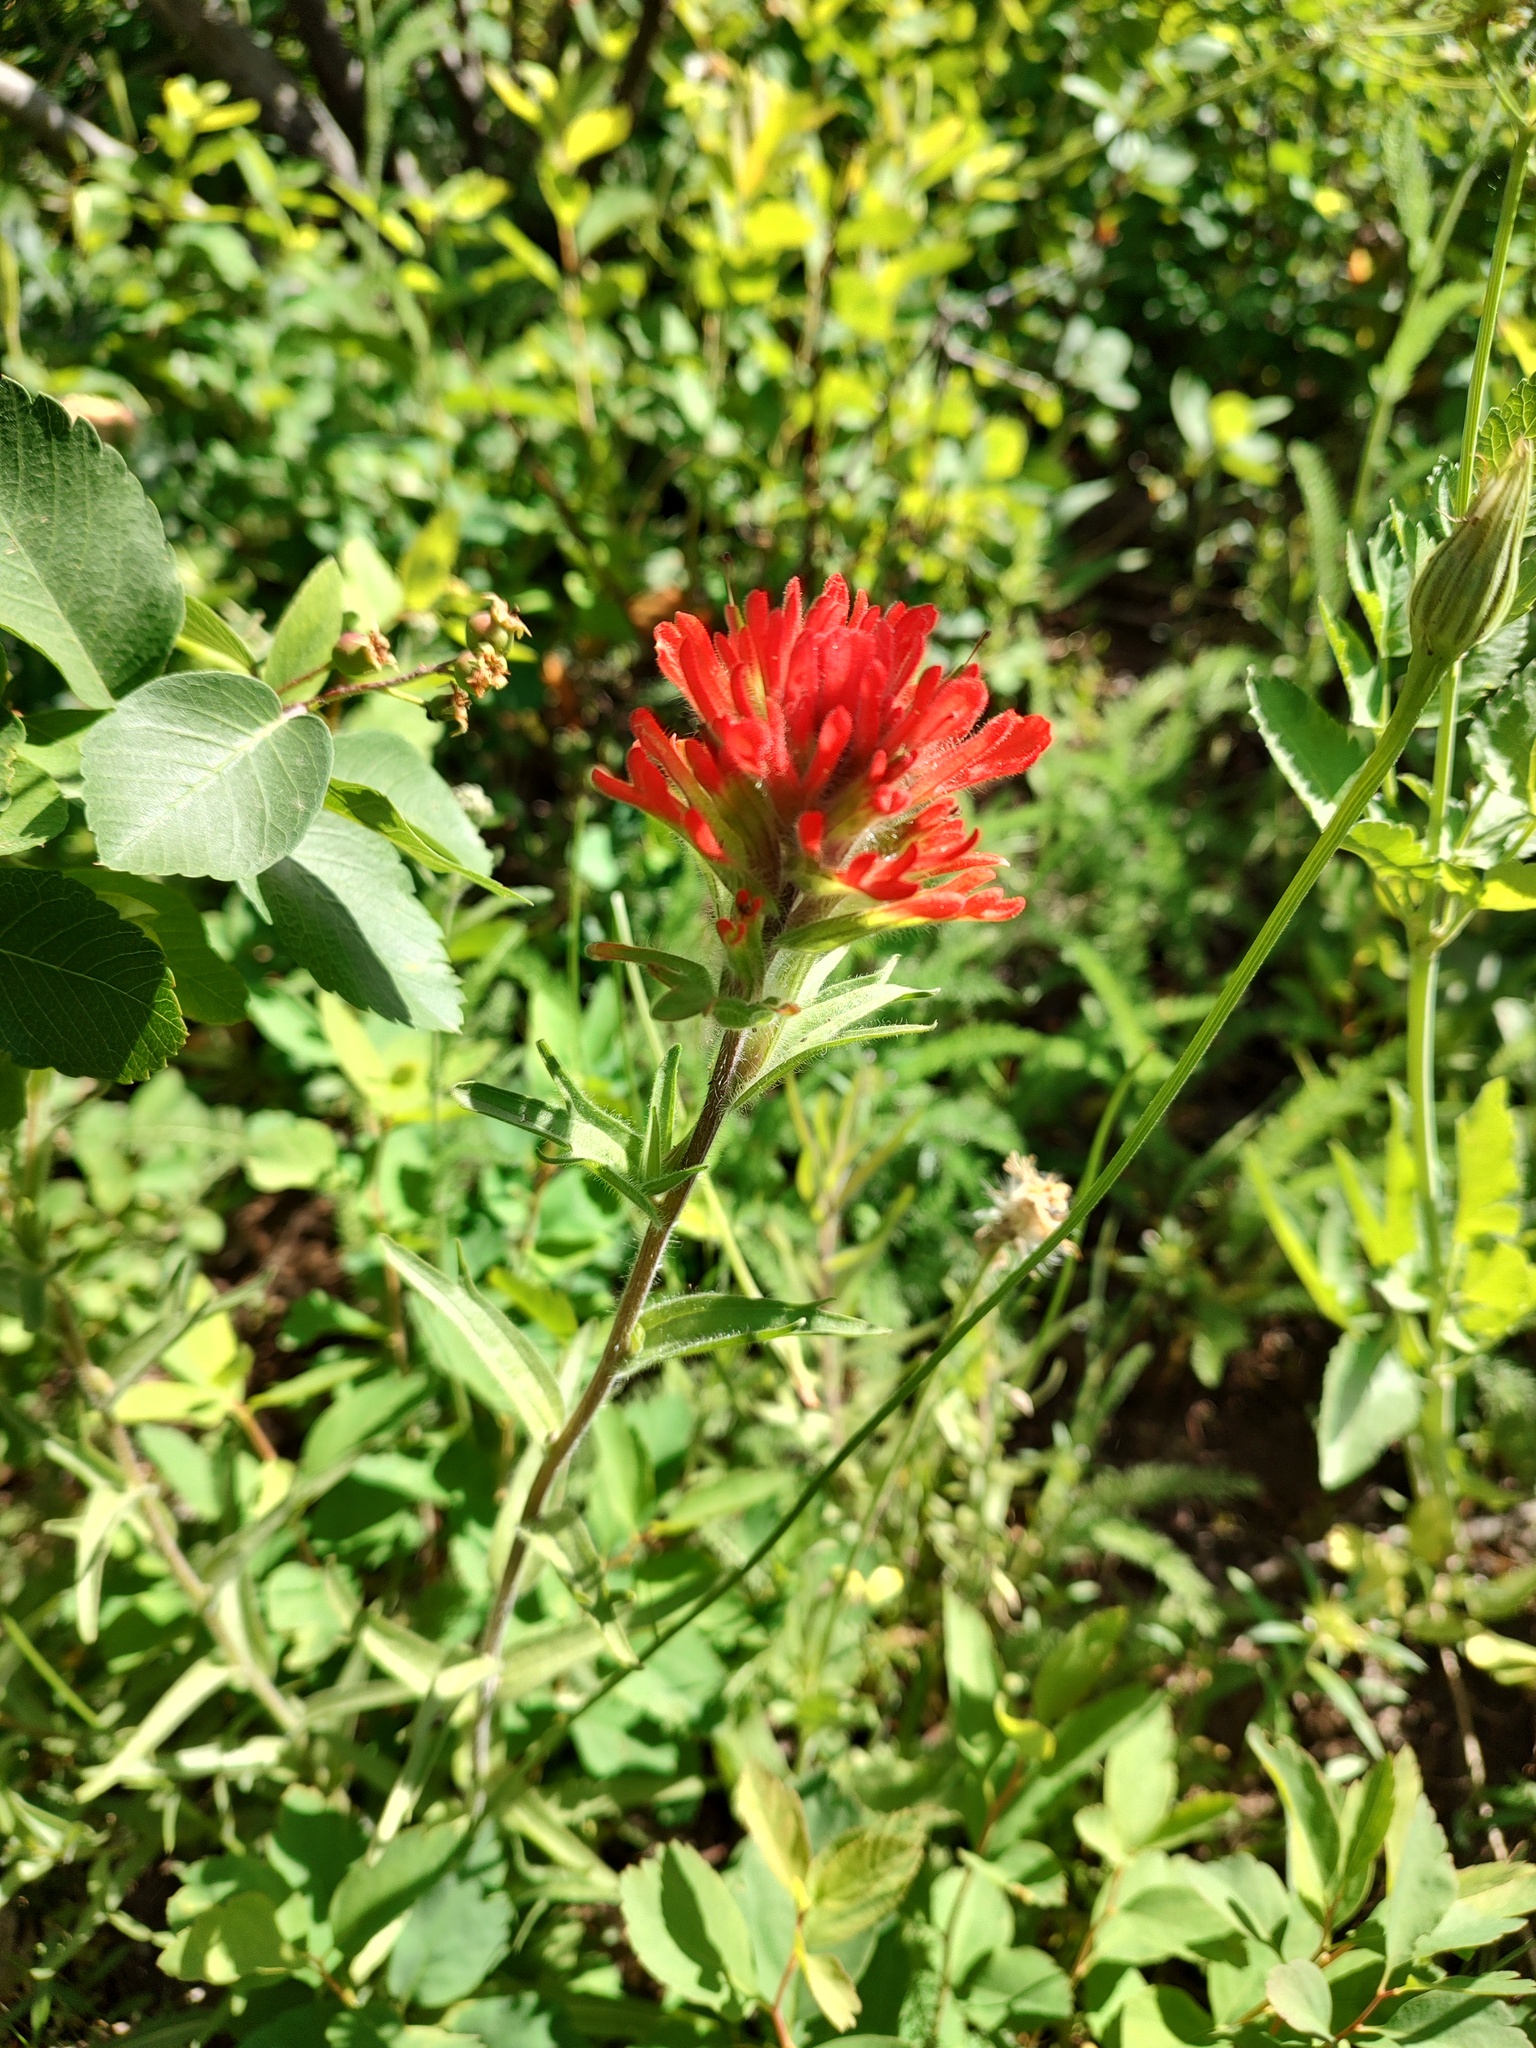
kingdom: Plantae
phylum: Tracheophyta
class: Magnoliopsida
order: Lamiales
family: Orobanchaceae
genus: Castilleja
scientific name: Castilleja hispida
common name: Bristly paintbrush
